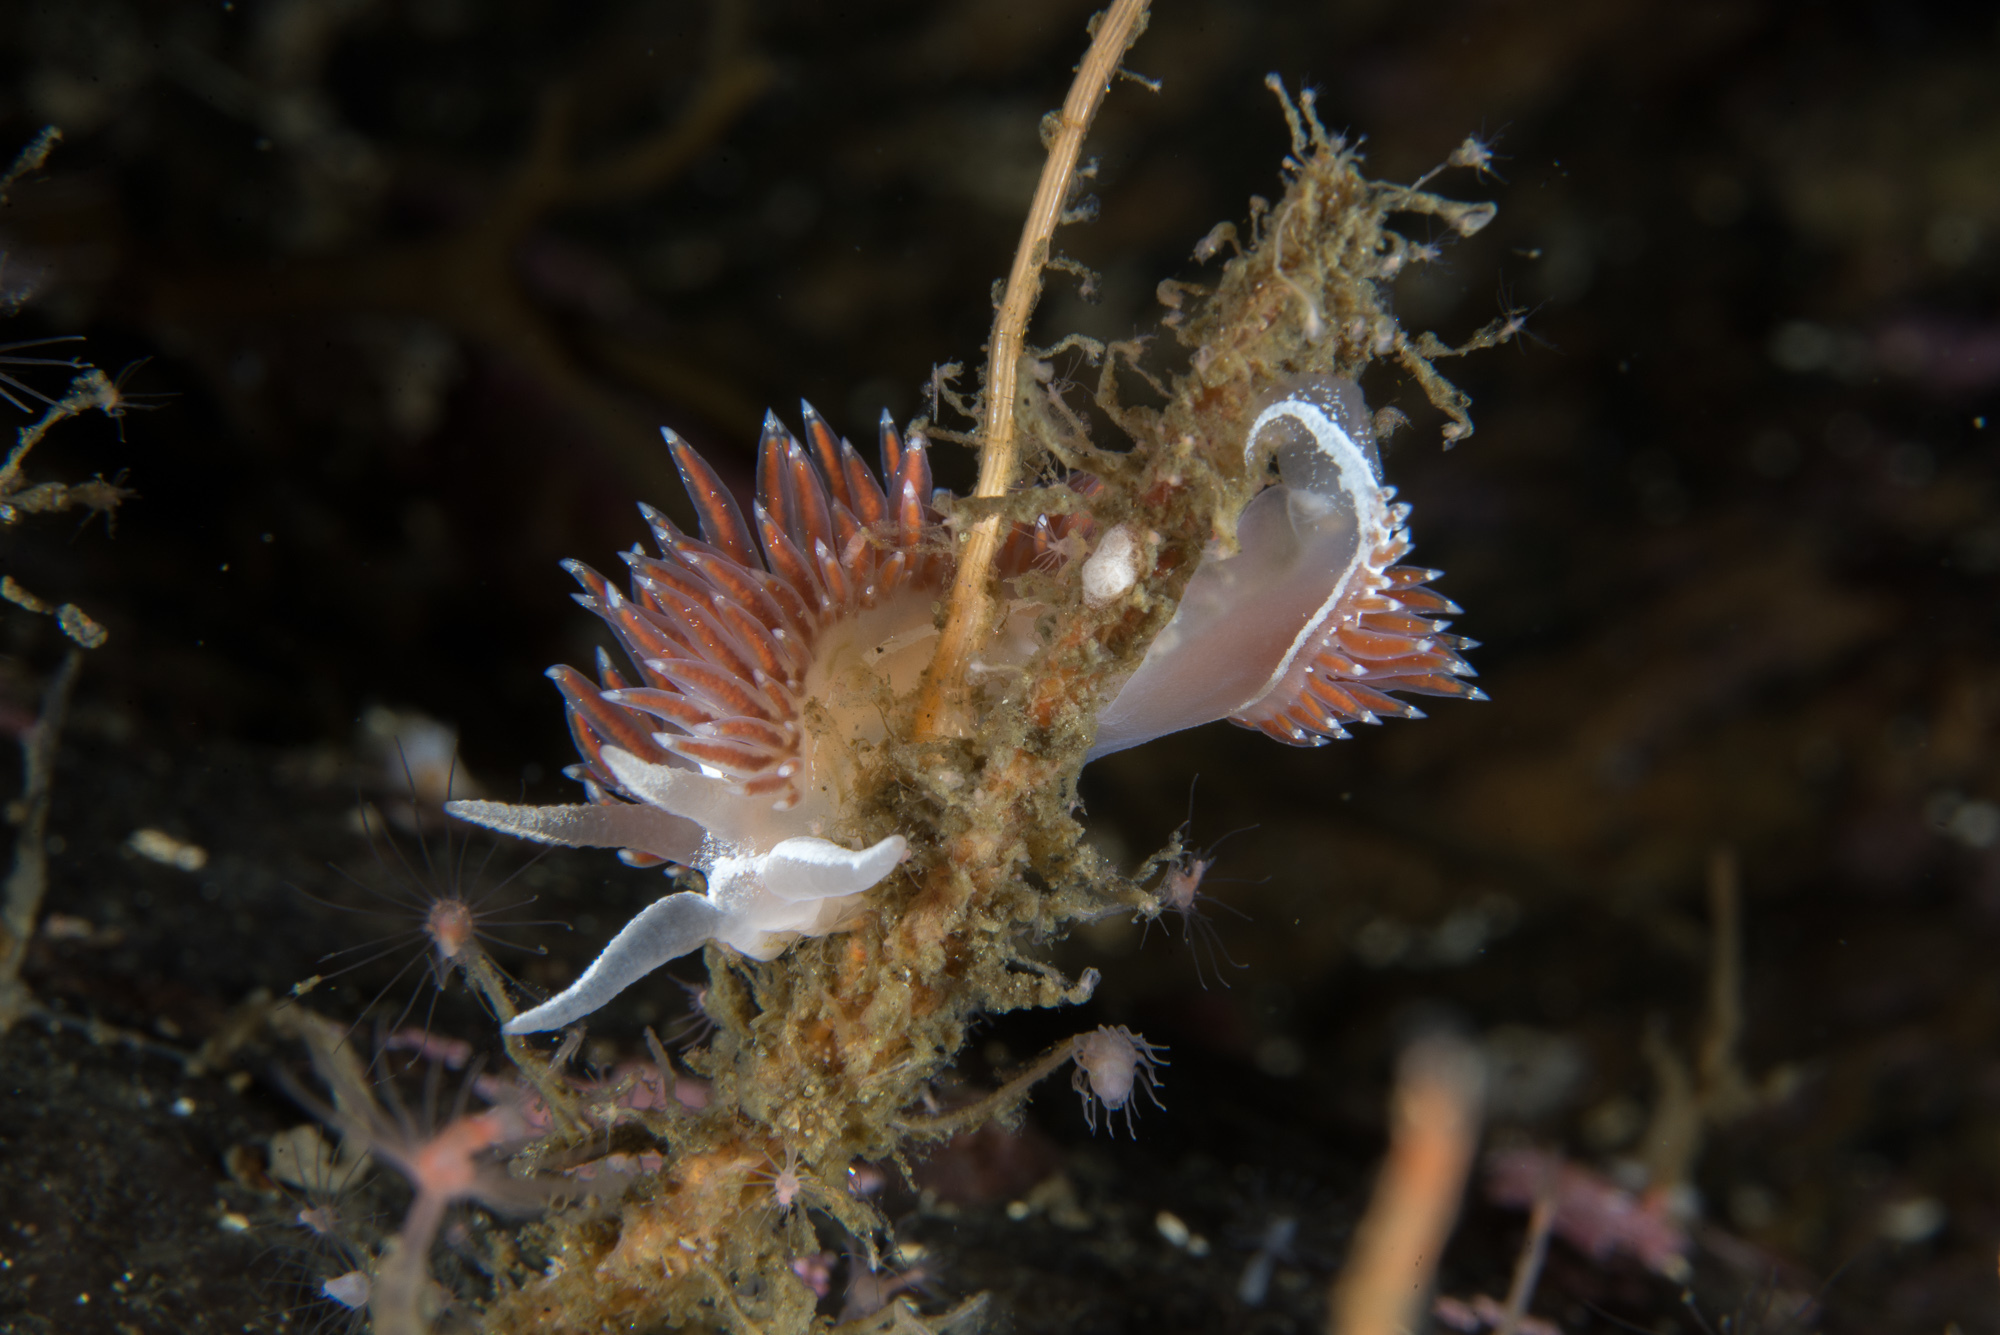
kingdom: Animalia
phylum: Mollusca
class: Gastropoda
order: Nudibranchia
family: Coryphellidae
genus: Coryphella
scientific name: Coryphella monicae
